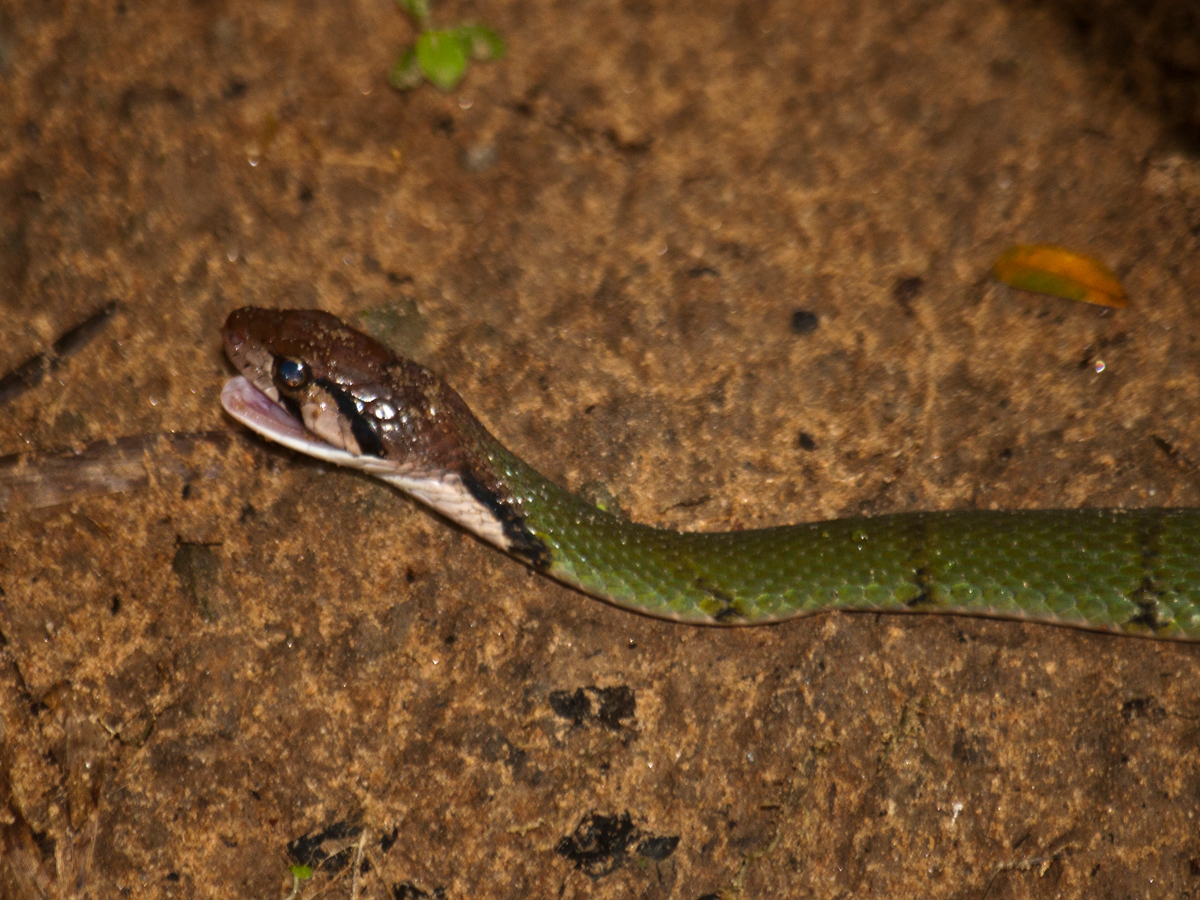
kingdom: Animalia
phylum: Chordata
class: Squamata
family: Colubridae
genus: Rhabdophis
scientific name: Rhabdophis nigrocinctus
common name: Green keelback
